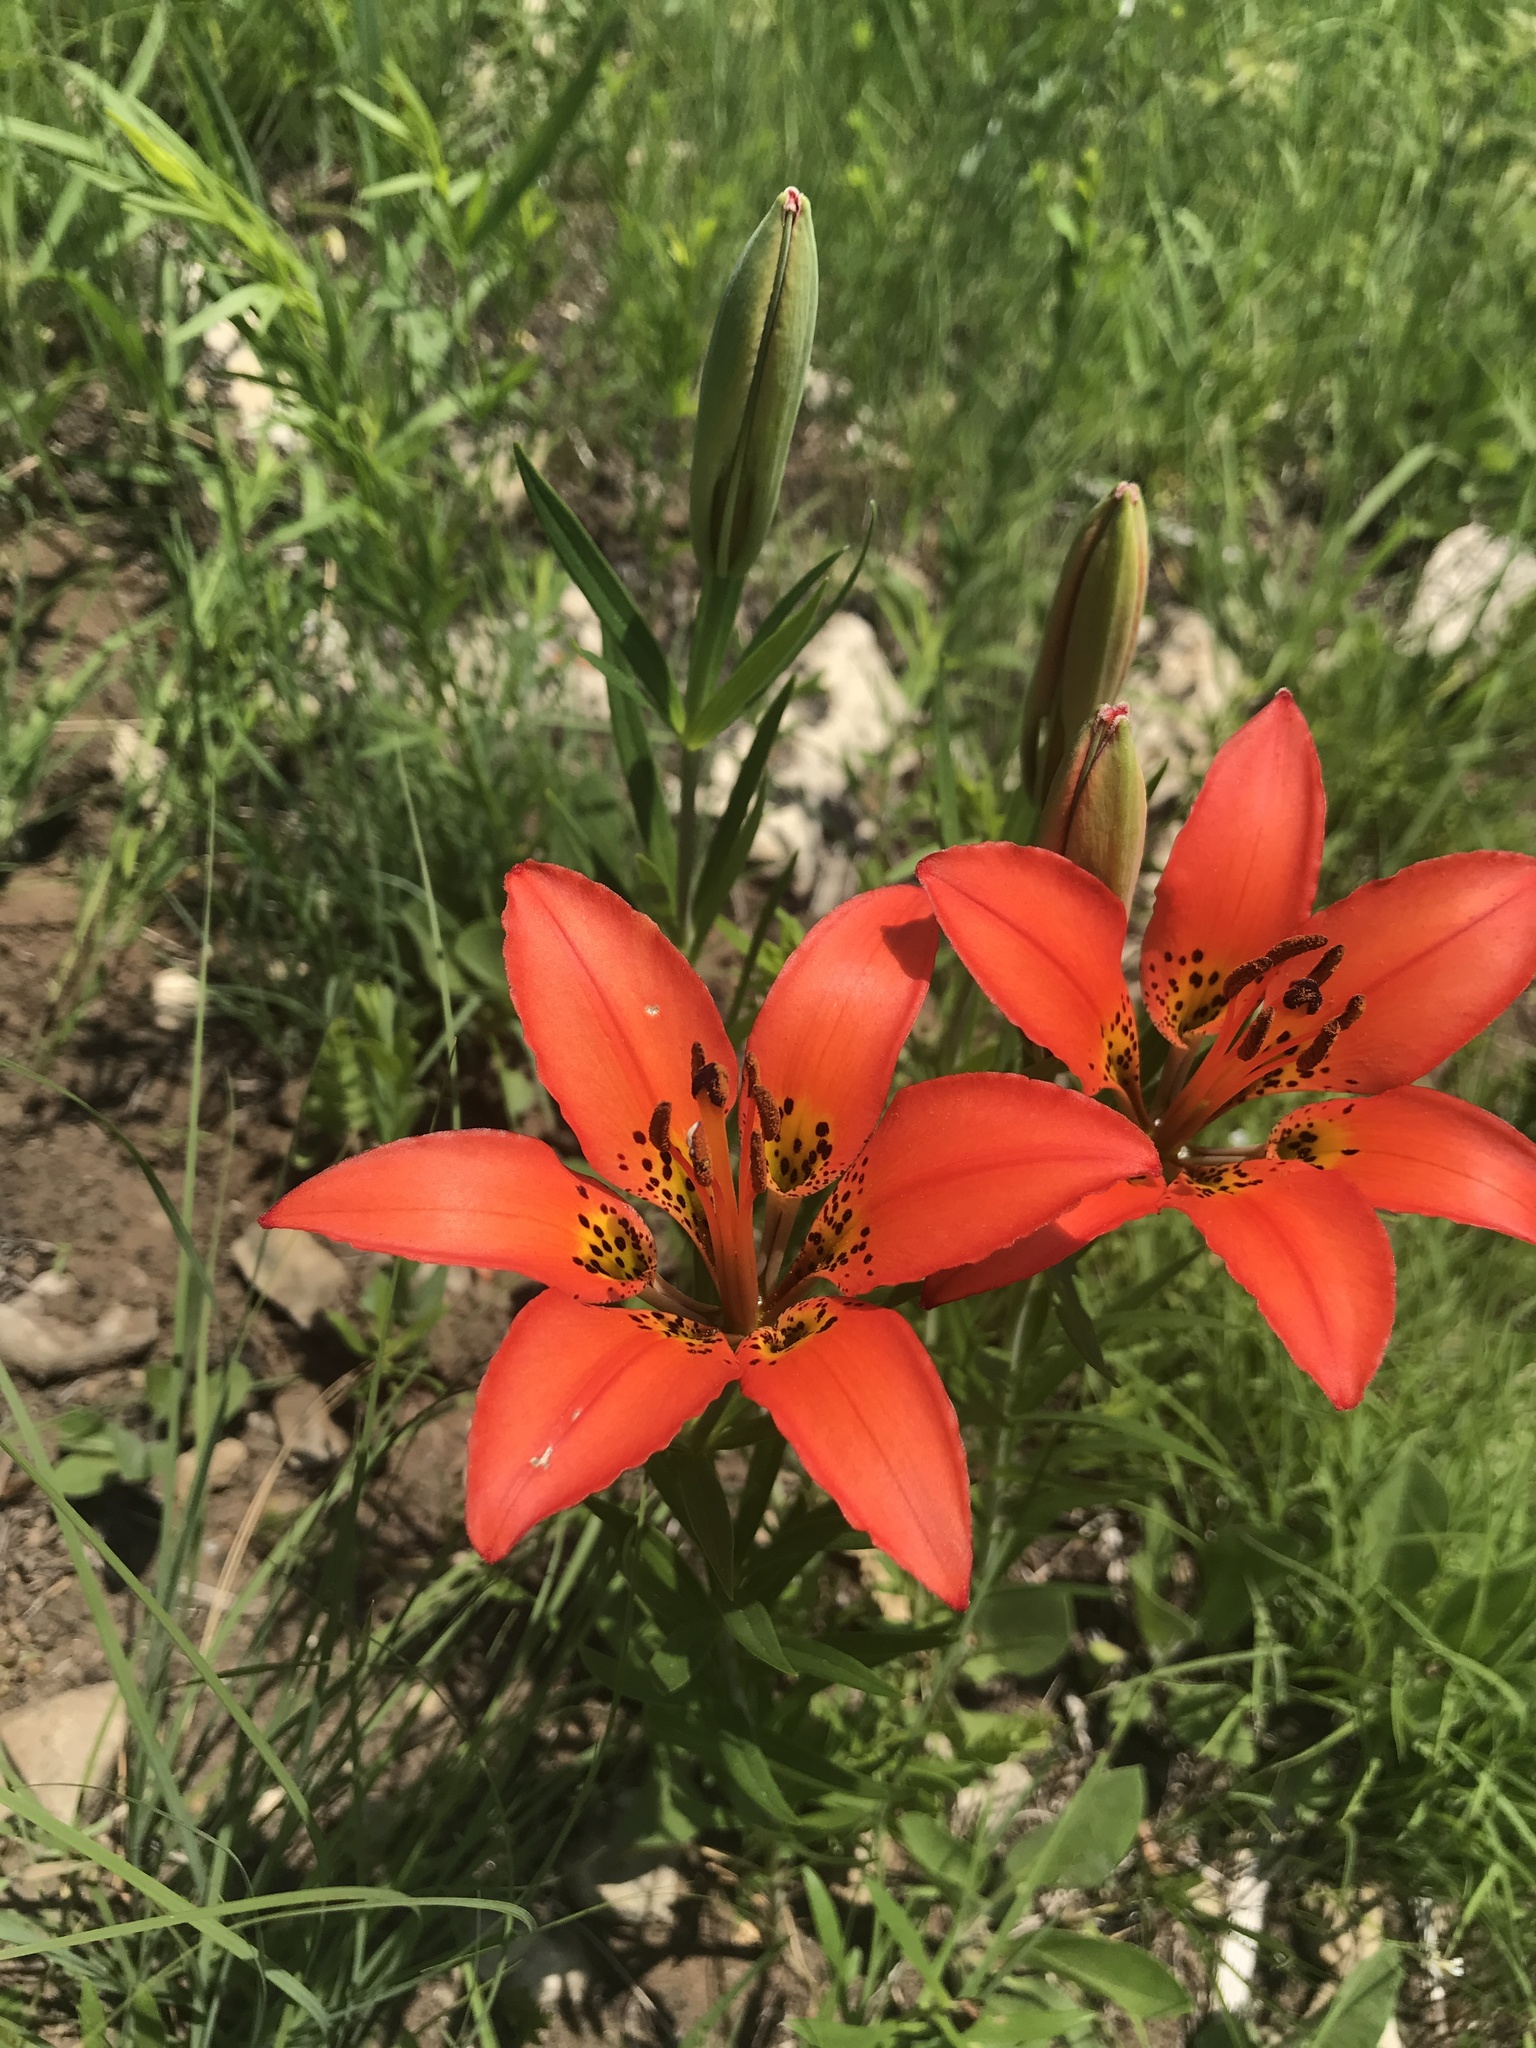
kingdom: Plantae
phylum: Tracheophyta
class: Liliopsida
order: Liliales
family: Liliaceae
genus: Lilium
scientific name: Lilium philadelphicum
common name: Red lily
